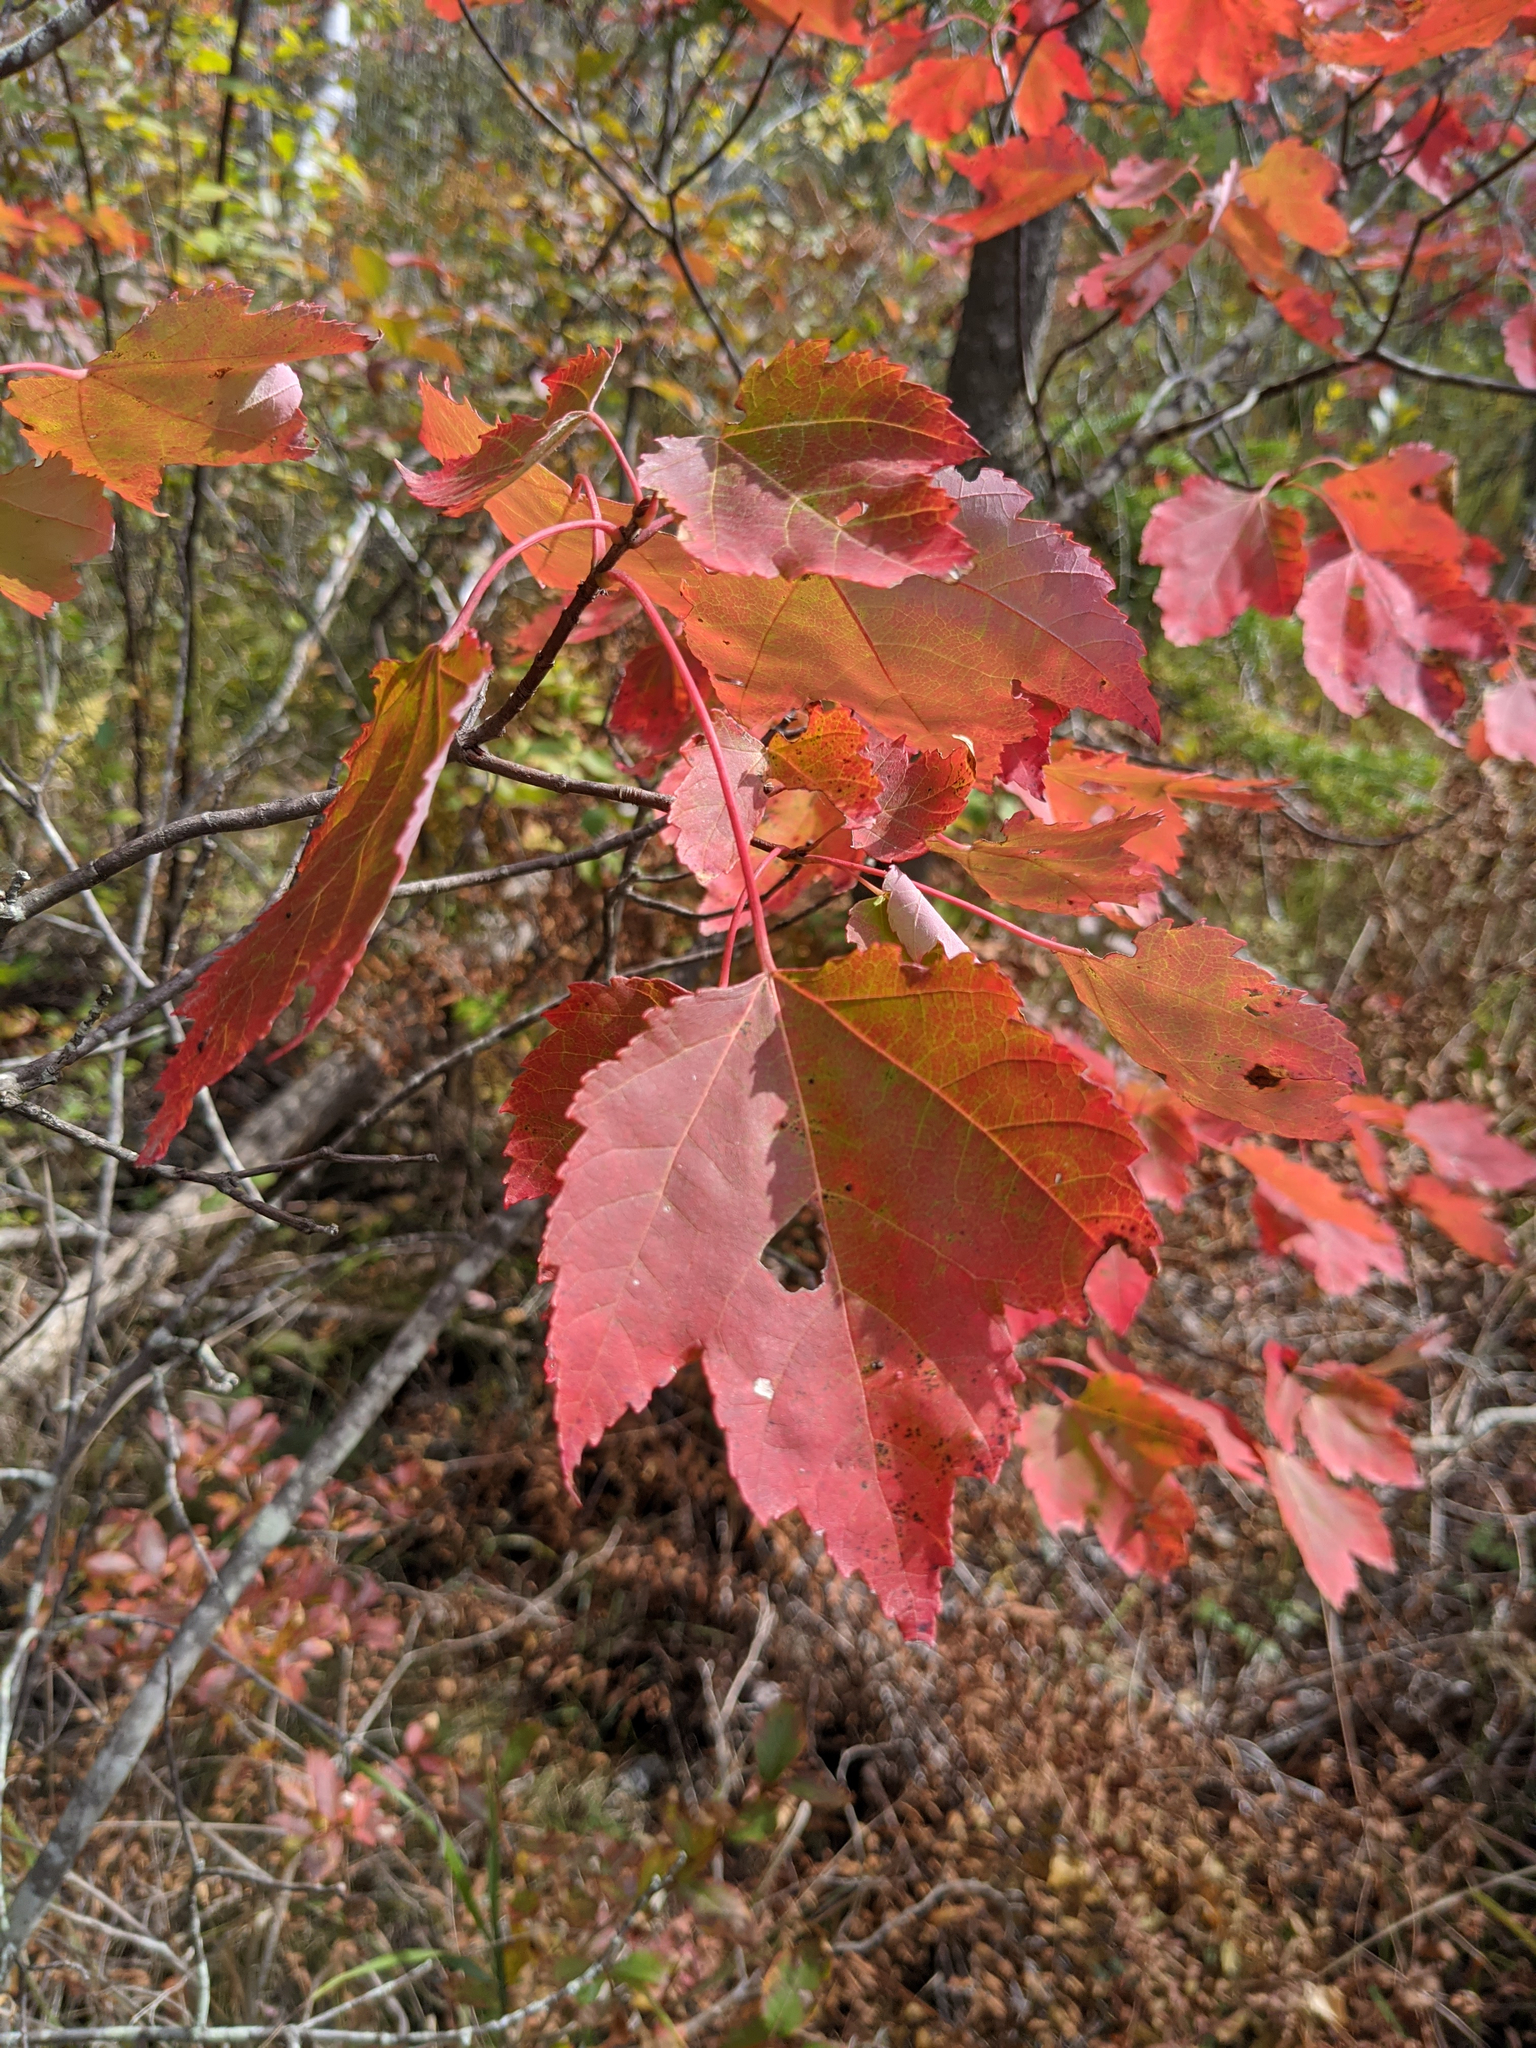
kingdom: Plantae
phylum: Tracheophyta
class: Magnoliopsida
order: Sapindales
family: Sapindaceae
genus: Acer
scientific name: Acer rubrum
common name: Red maple
